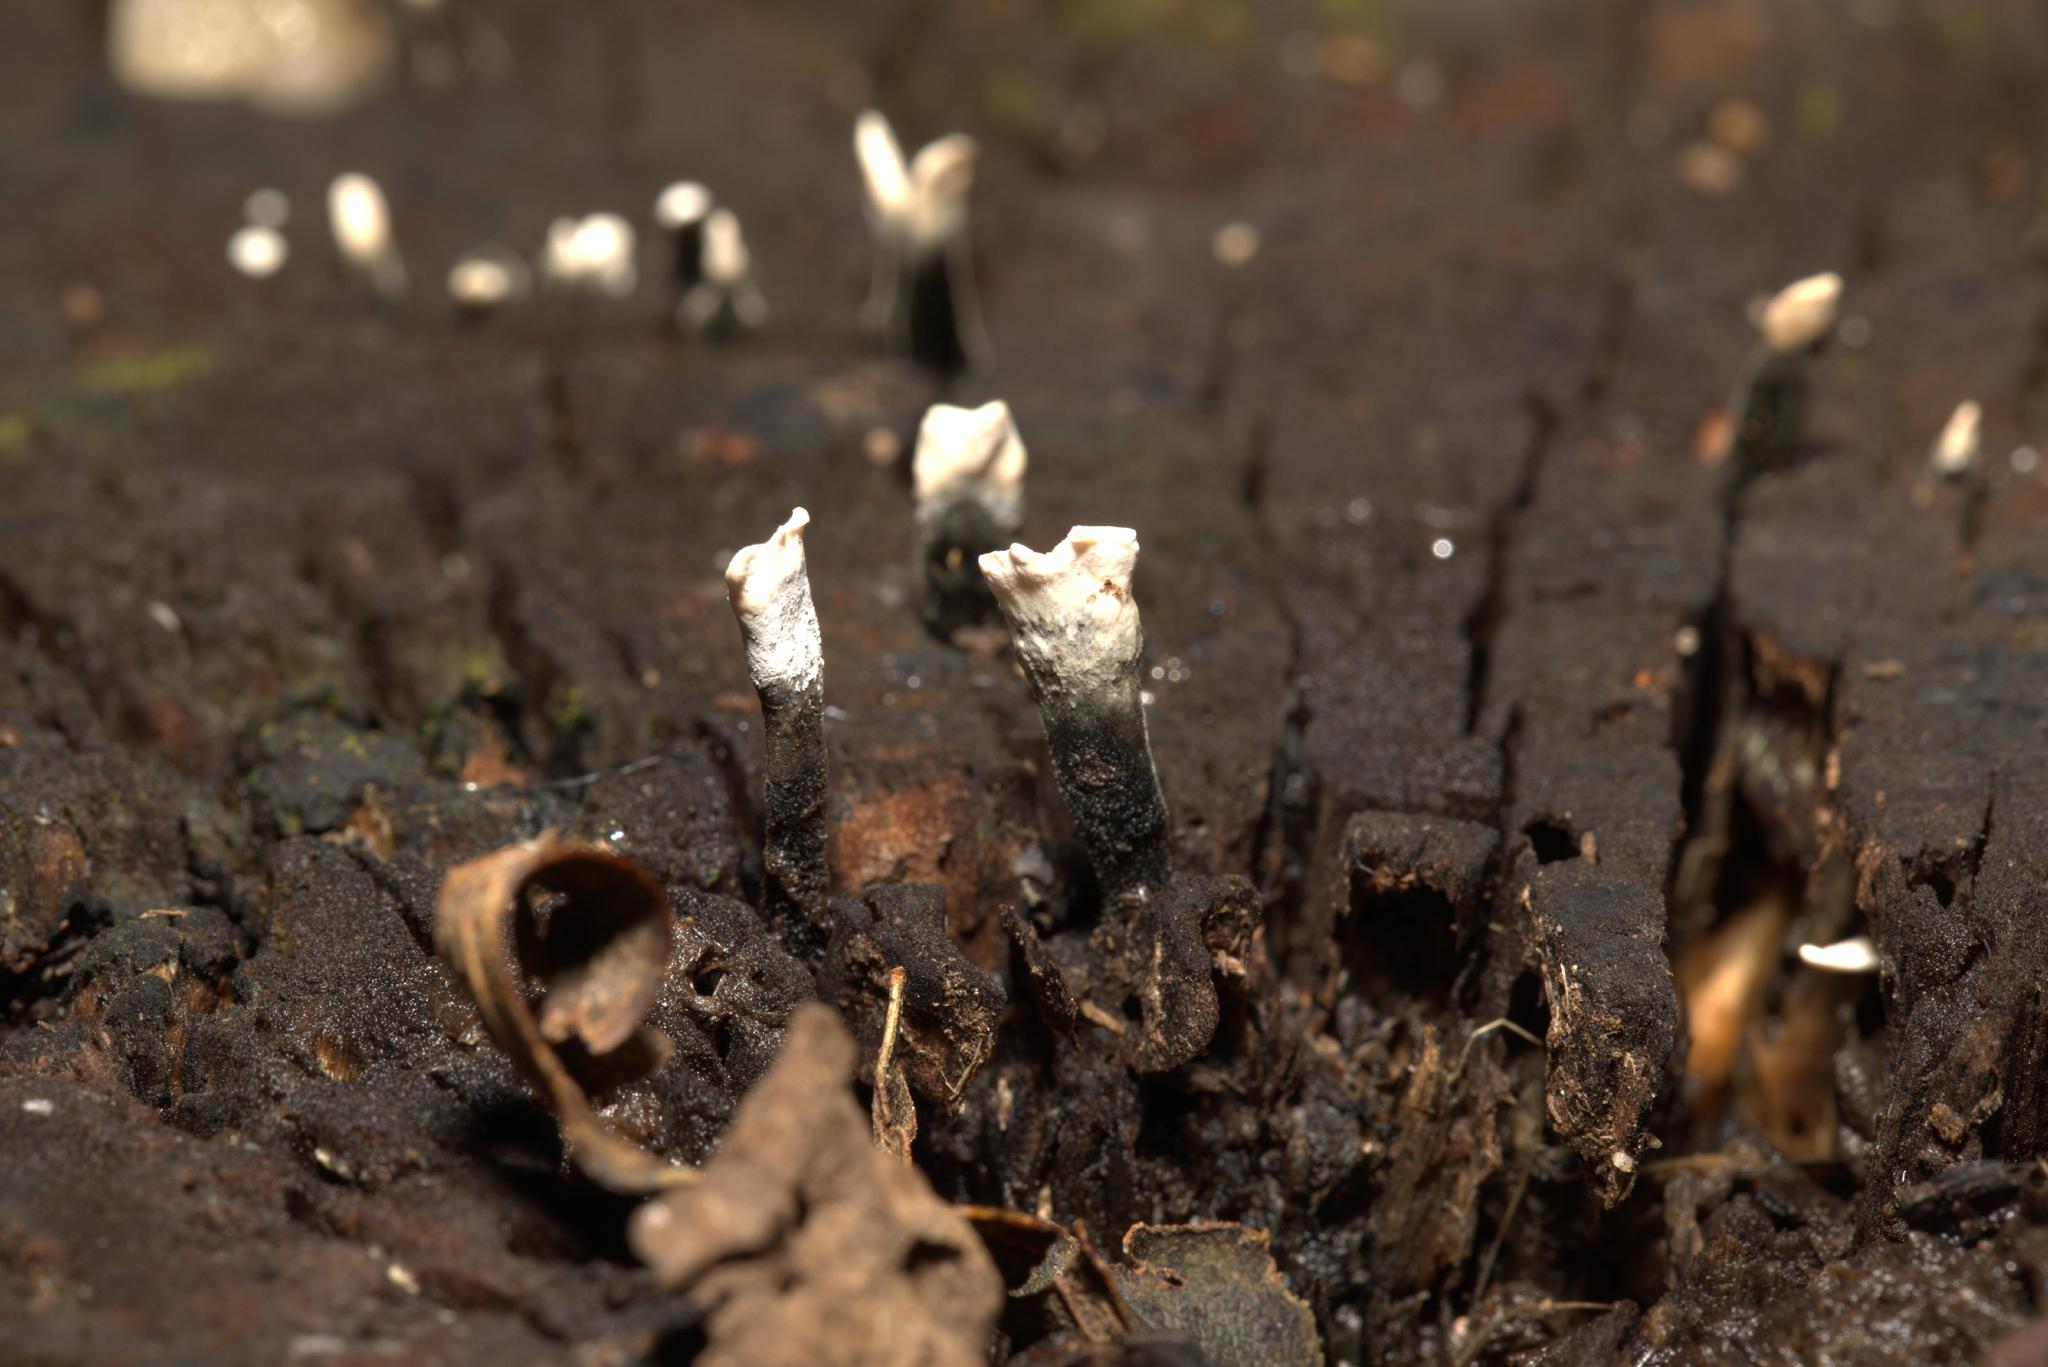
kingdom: Fungi
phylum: Ascomycota
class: Sordariomycetes
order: Xylariales
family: Xylariaceae
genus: Xylaria
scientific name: Xylaria hypoxylon
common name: Candle-snuff fungus
